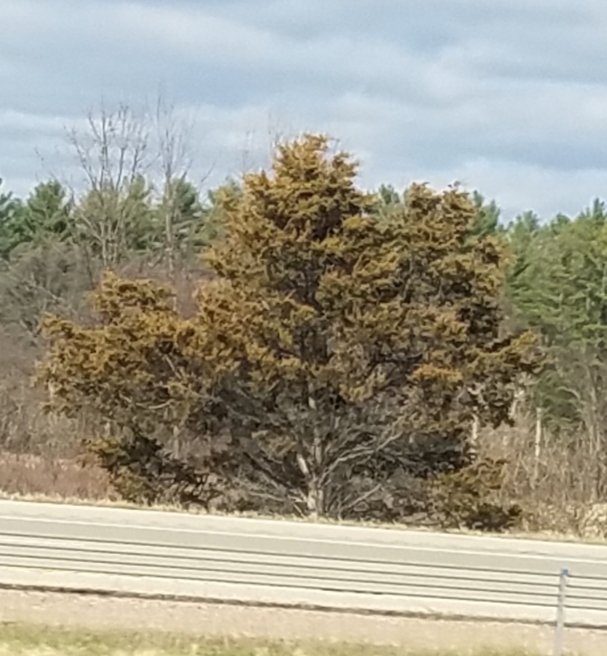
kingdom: Plantae
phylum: Tracheophyta
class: Pinopsida
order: Pinales
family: Cupressaceae
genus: Juniperus
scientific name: Juniperus virginiana
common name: Red juniper
